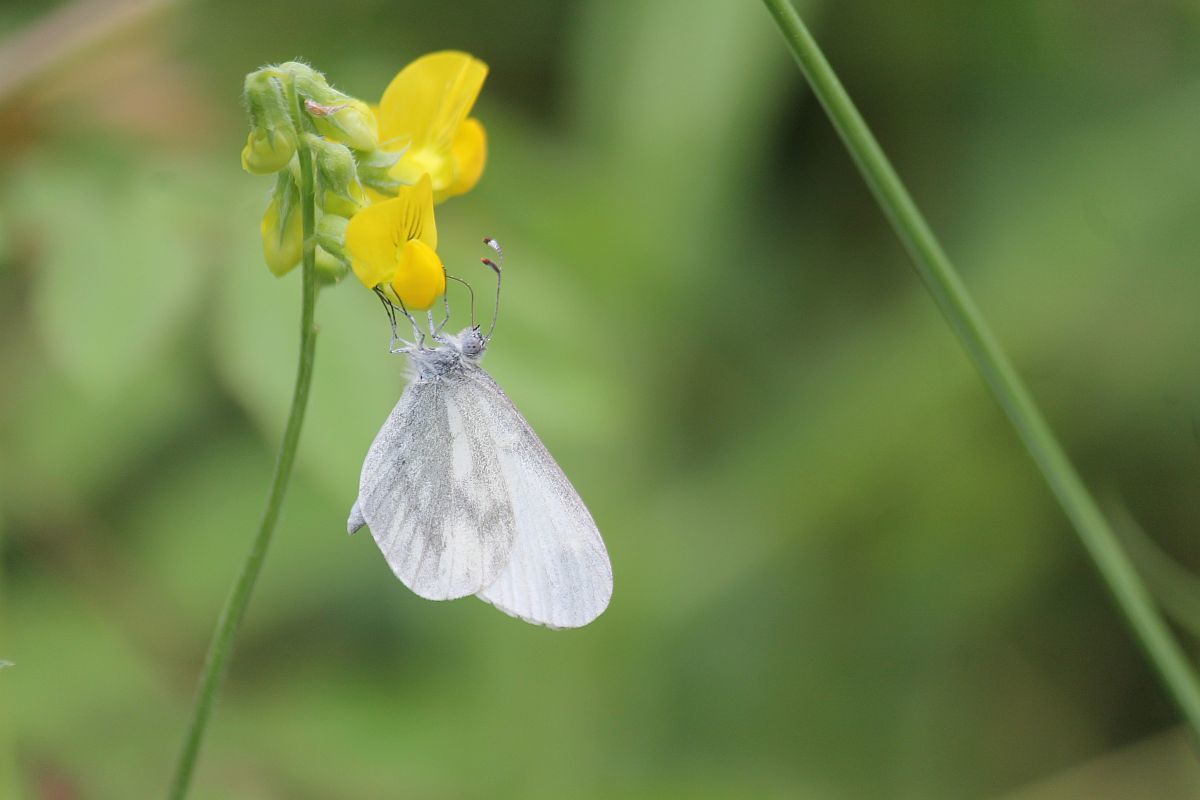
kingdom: Animalia
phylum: Arthropoda
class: Insecta
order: Lepidoptera
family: Pieridae
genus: Leptidea
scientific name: Leptidea sinapis
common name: Wood white
